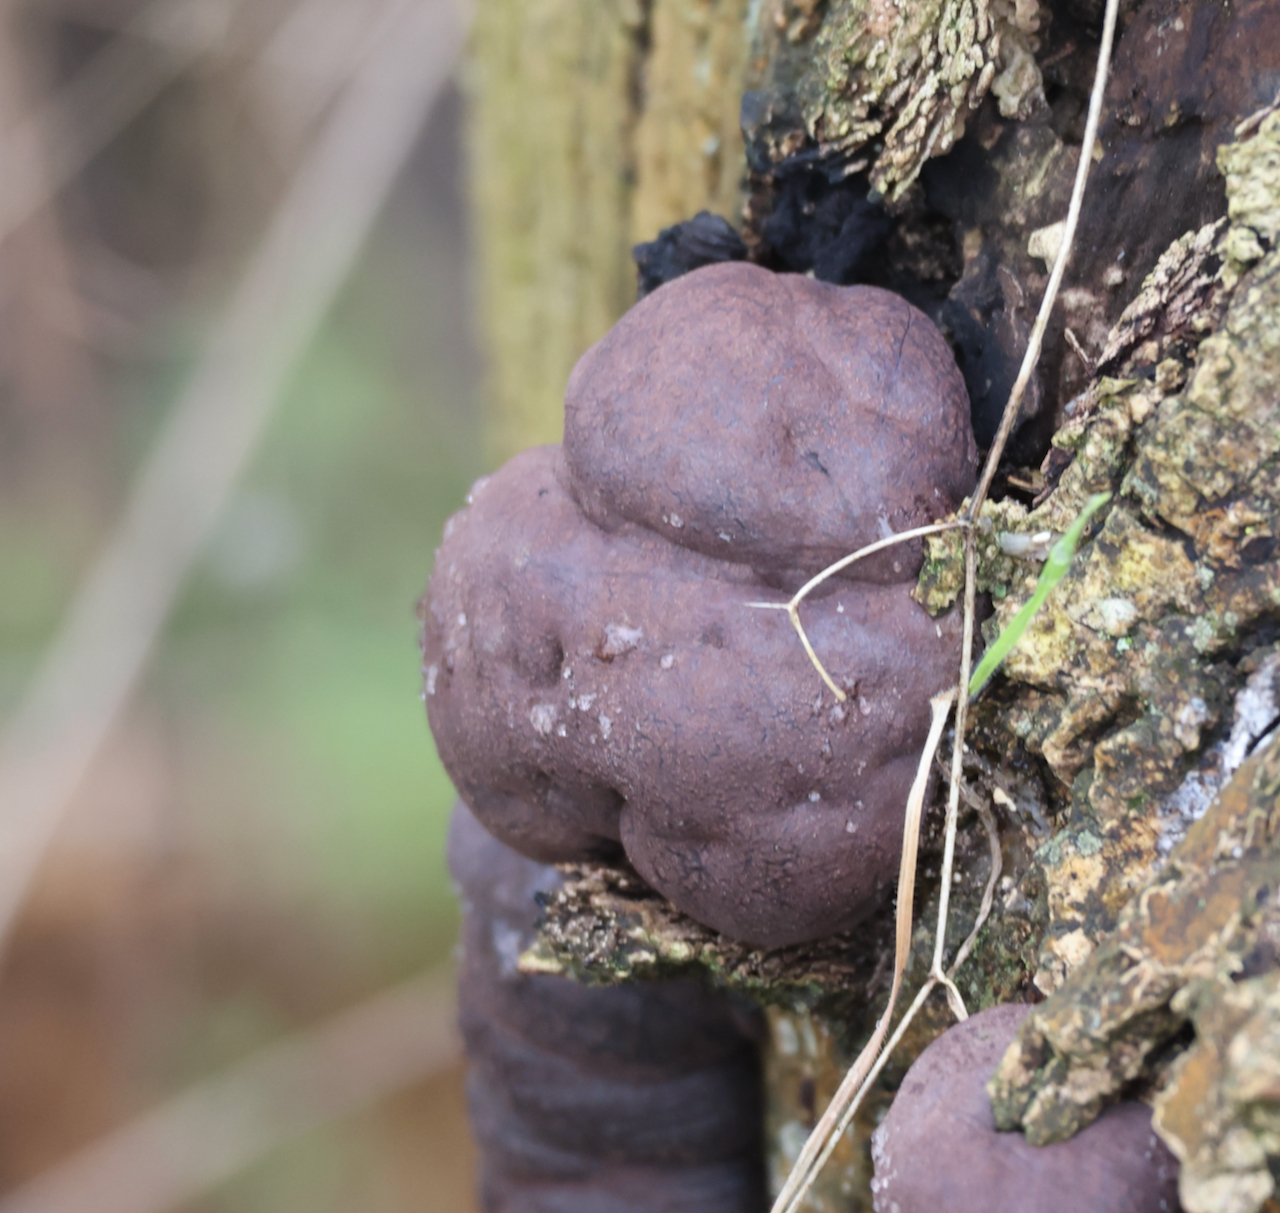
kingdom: Fungi
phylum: Ascomycota
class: Sordariomycetes
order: Xylariales
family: Hypoxylaceae
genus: Daldinia
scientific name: Daldinia concentrica
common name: Cramp balls
